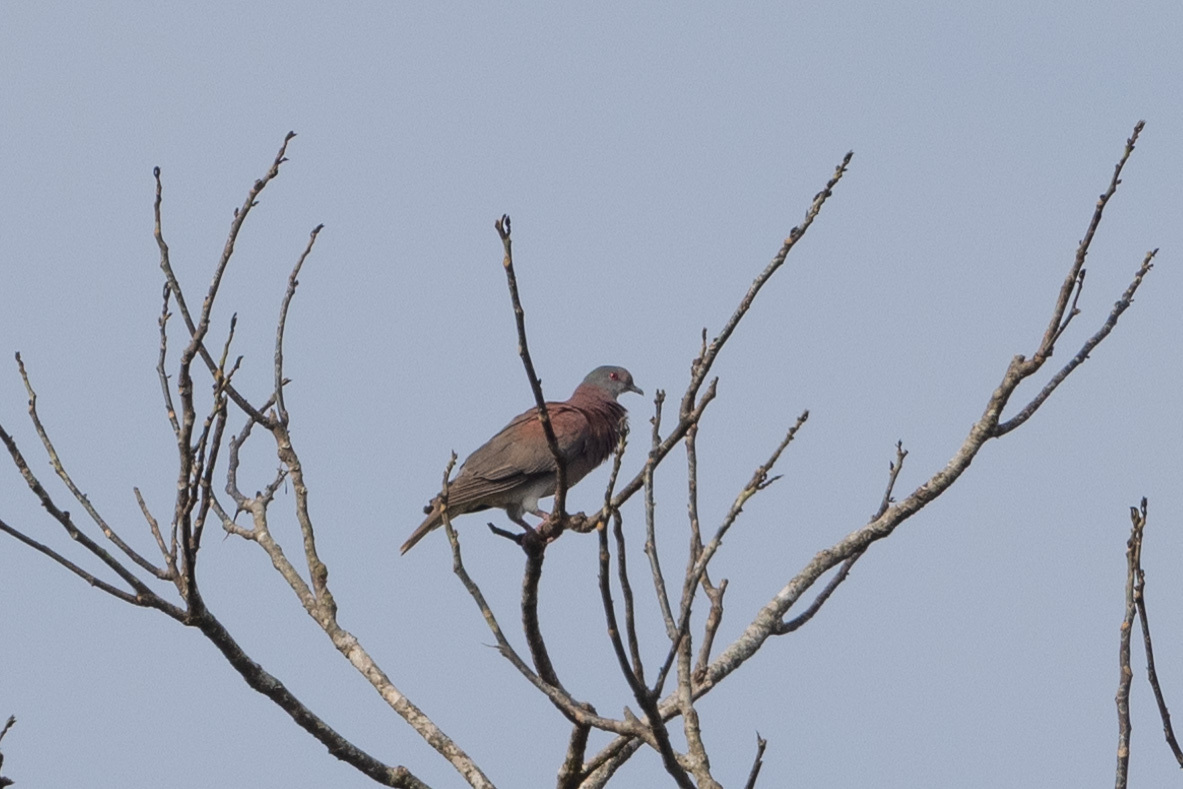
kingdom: Animalia
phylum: Chordata
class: Aves
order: Columbiformes
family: Columbidae
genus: Patagioenas
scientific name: Patagioenas cayennensis
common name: Pale-vented pigeon
